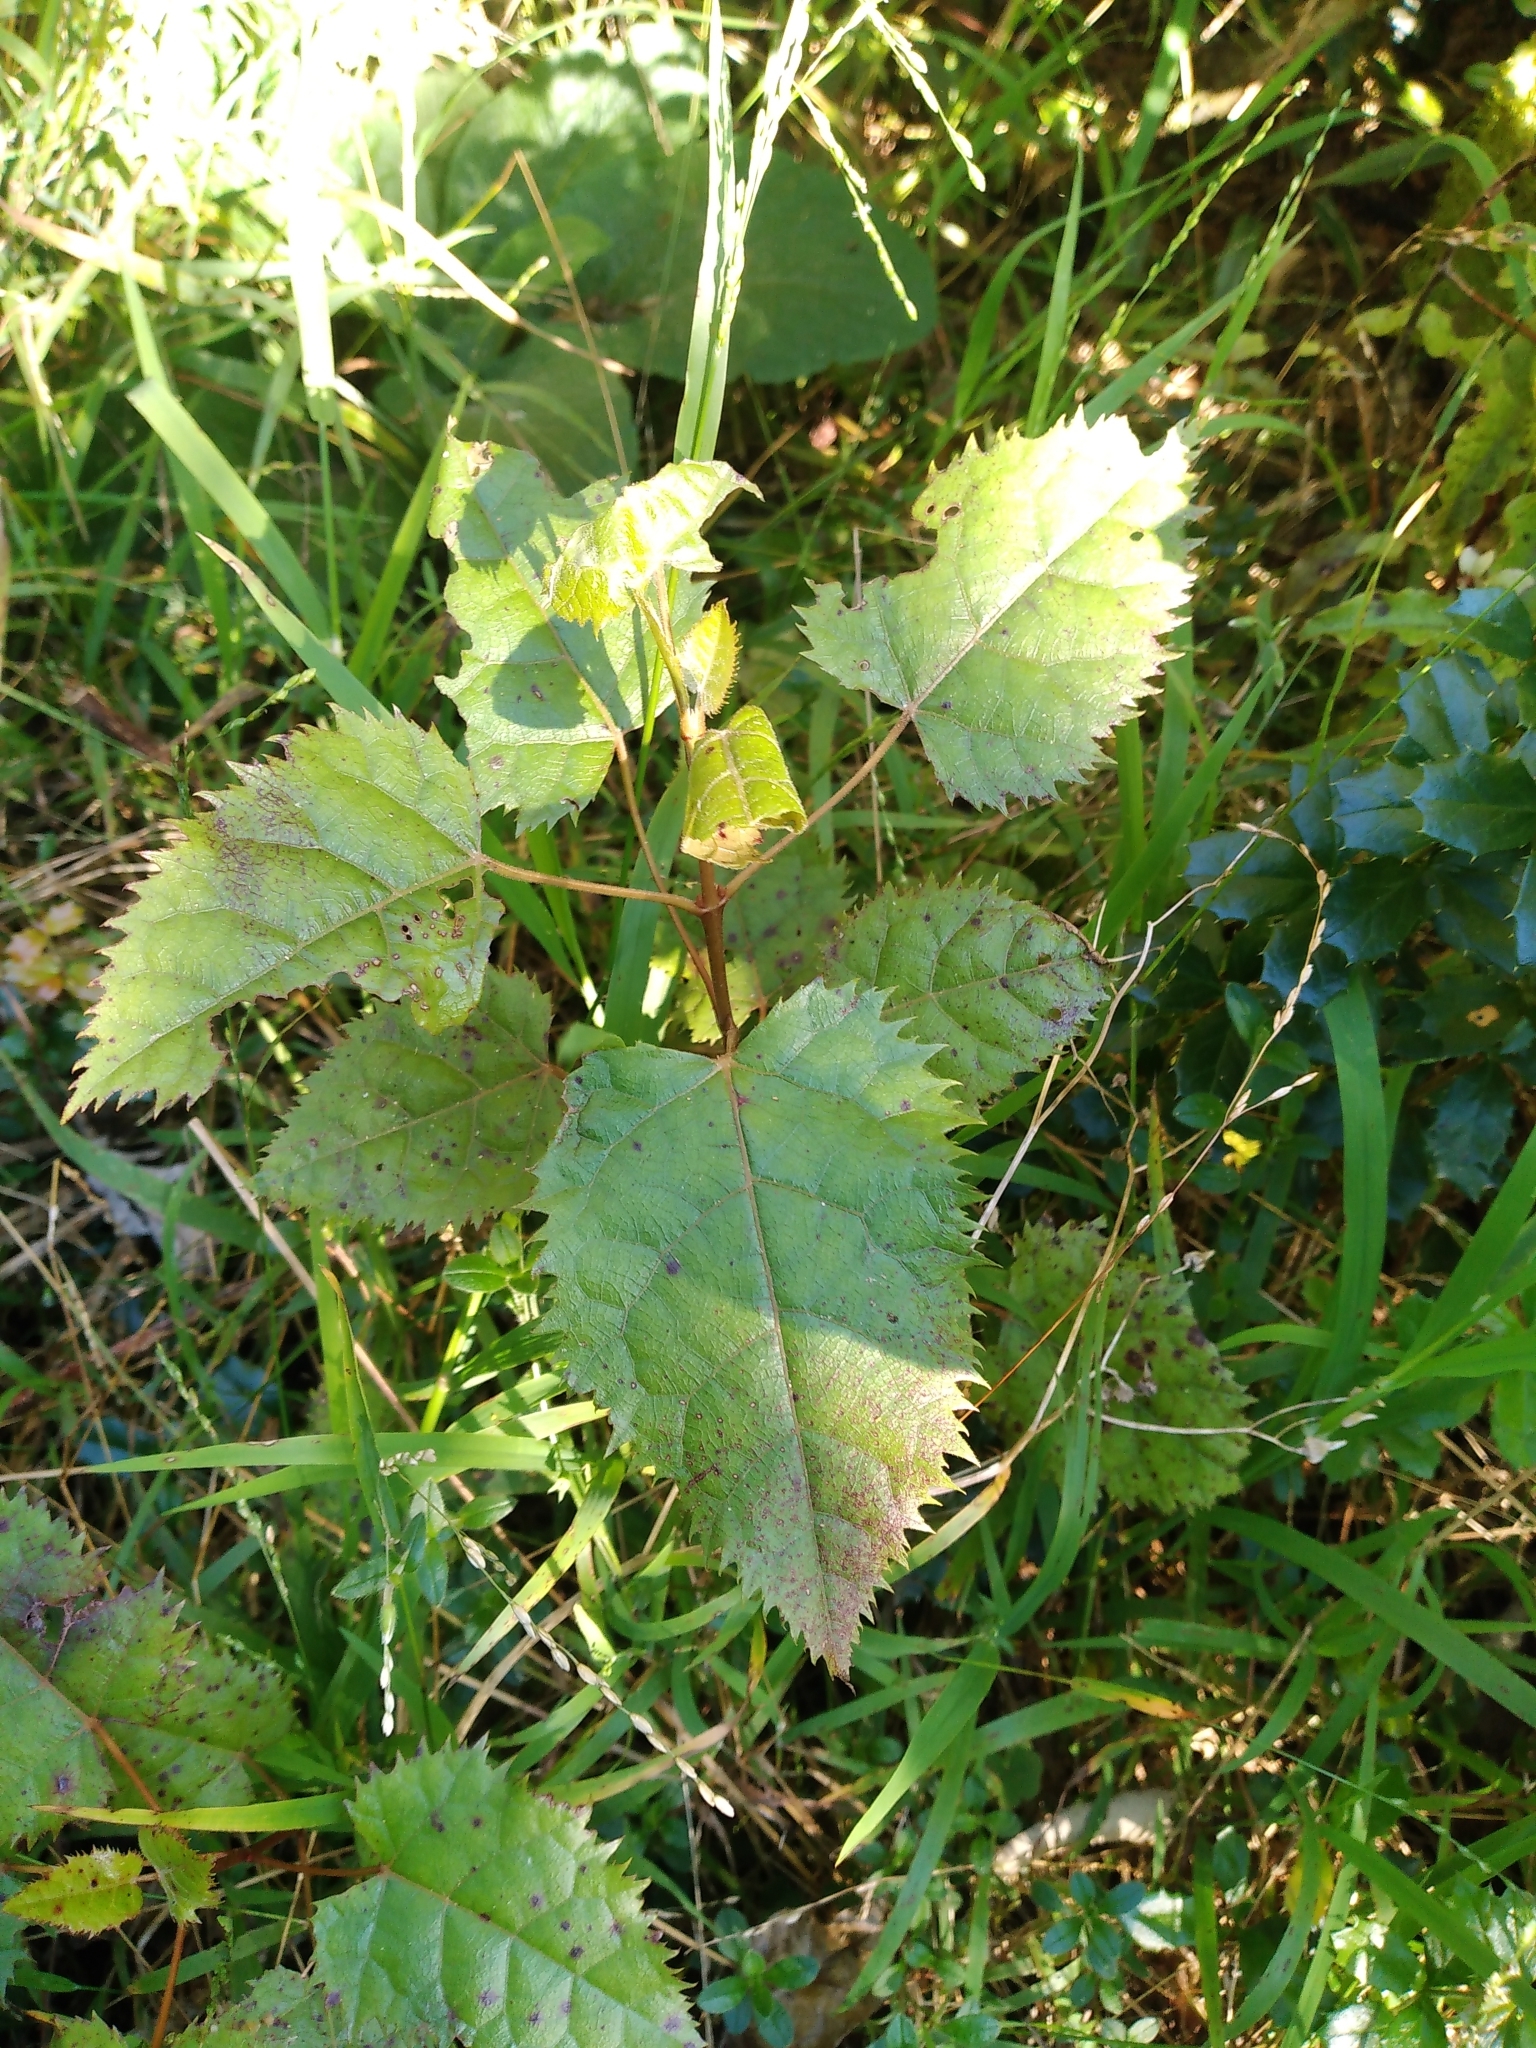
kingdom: Plantae
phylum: Tracheophyta
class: Magnoliopsida
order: Oxalidales
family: Elaeocarpaceae
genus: Aristotelia
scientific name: Aristotelia serrata
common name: New zealand wineberry
